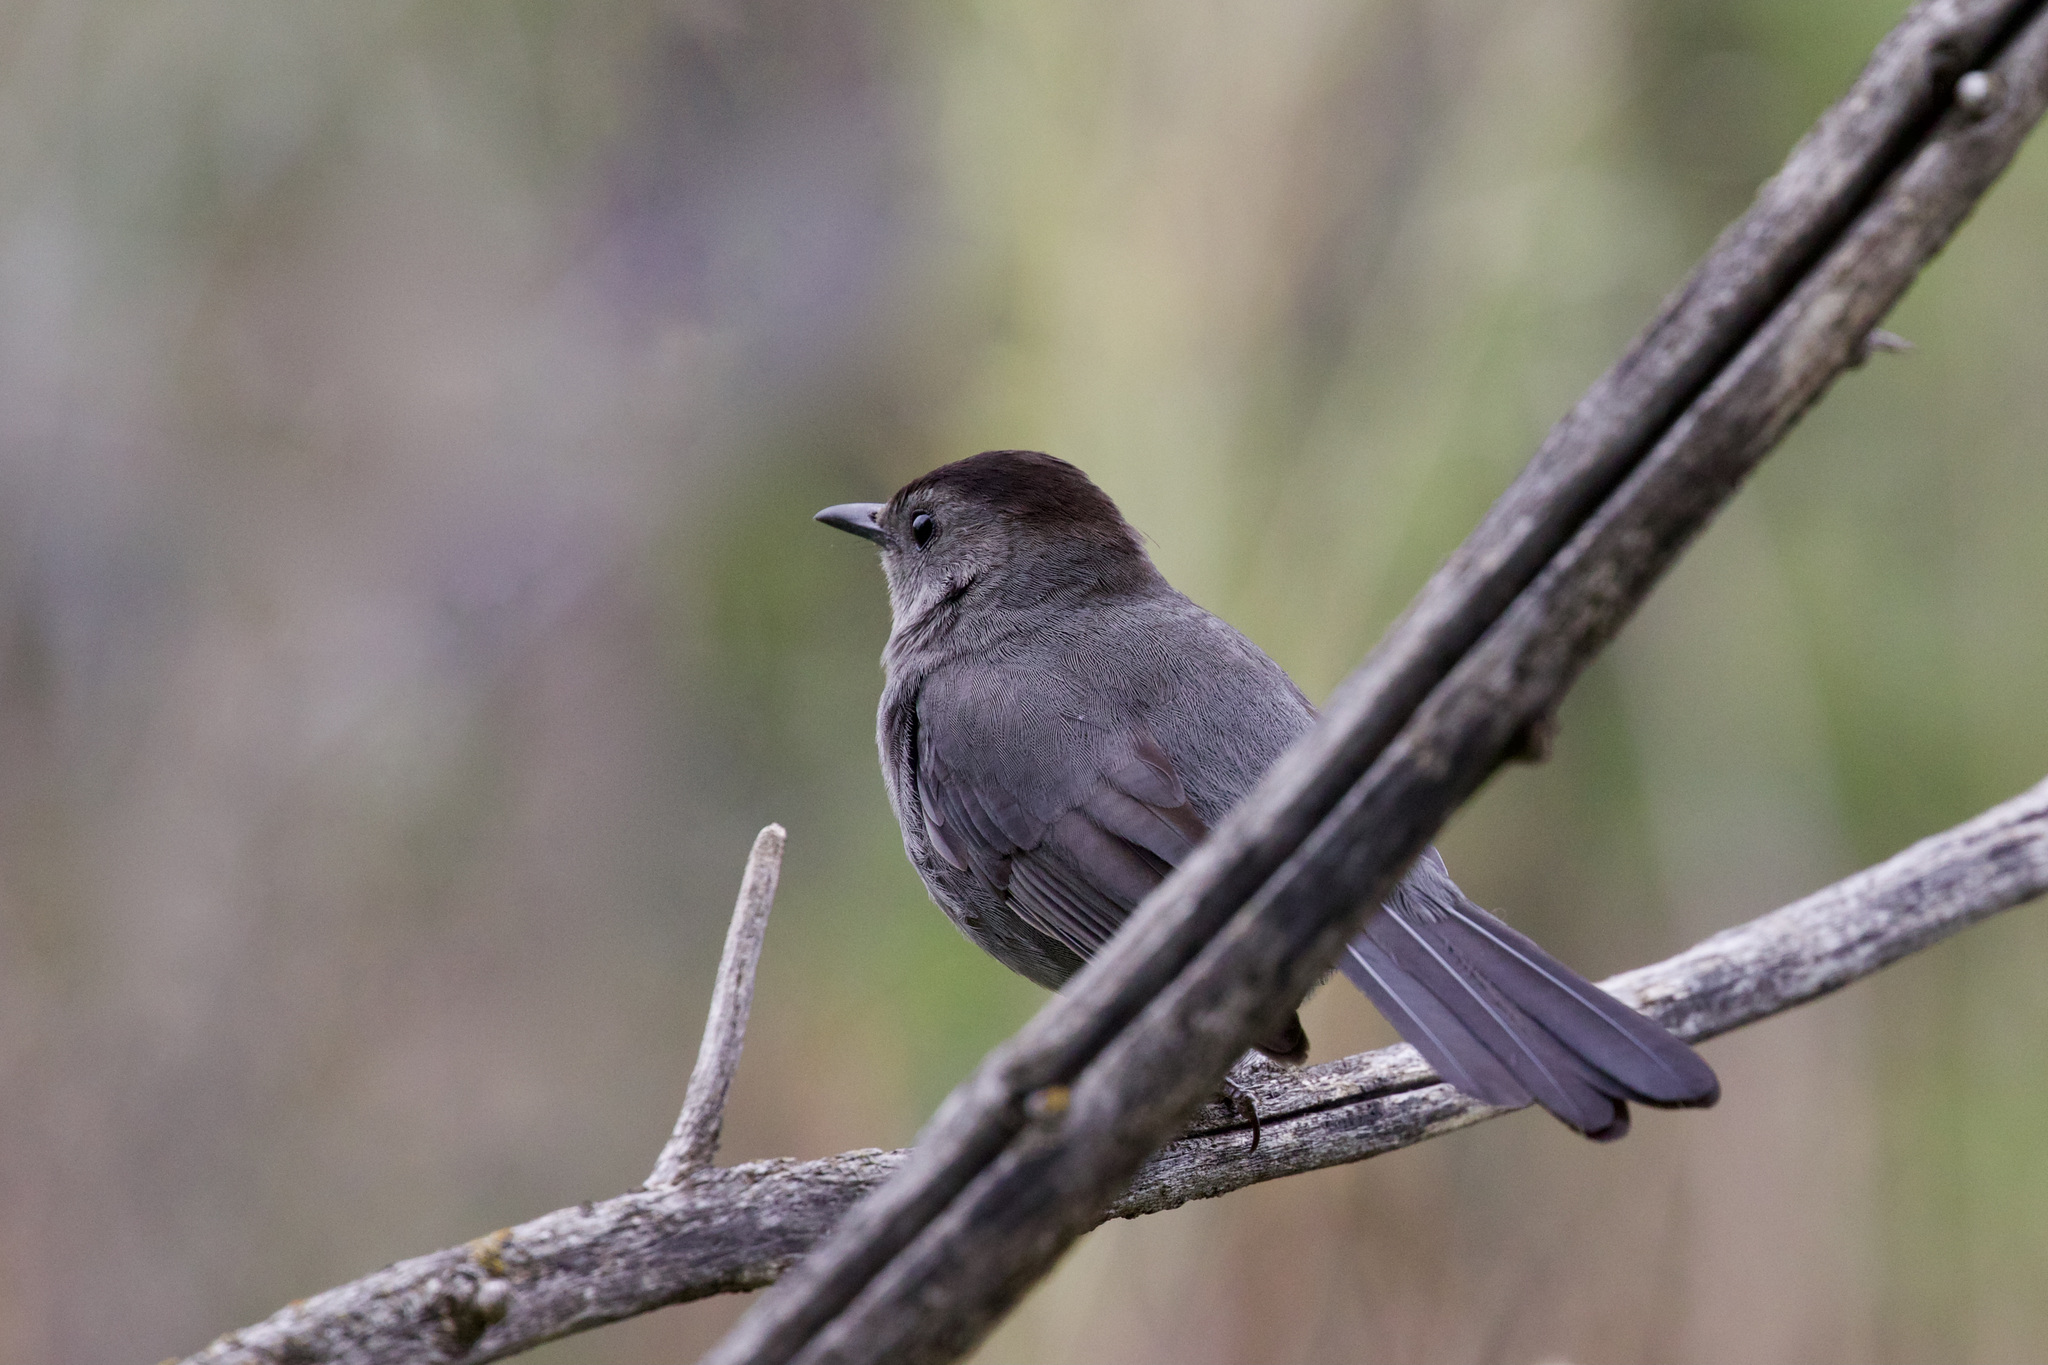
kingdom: Animalia
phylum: Chordata
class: Aves
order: Passeriformes
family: Mimidae
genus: Dumetella
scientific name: Dumetella carolinensis
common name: Gray catbird
